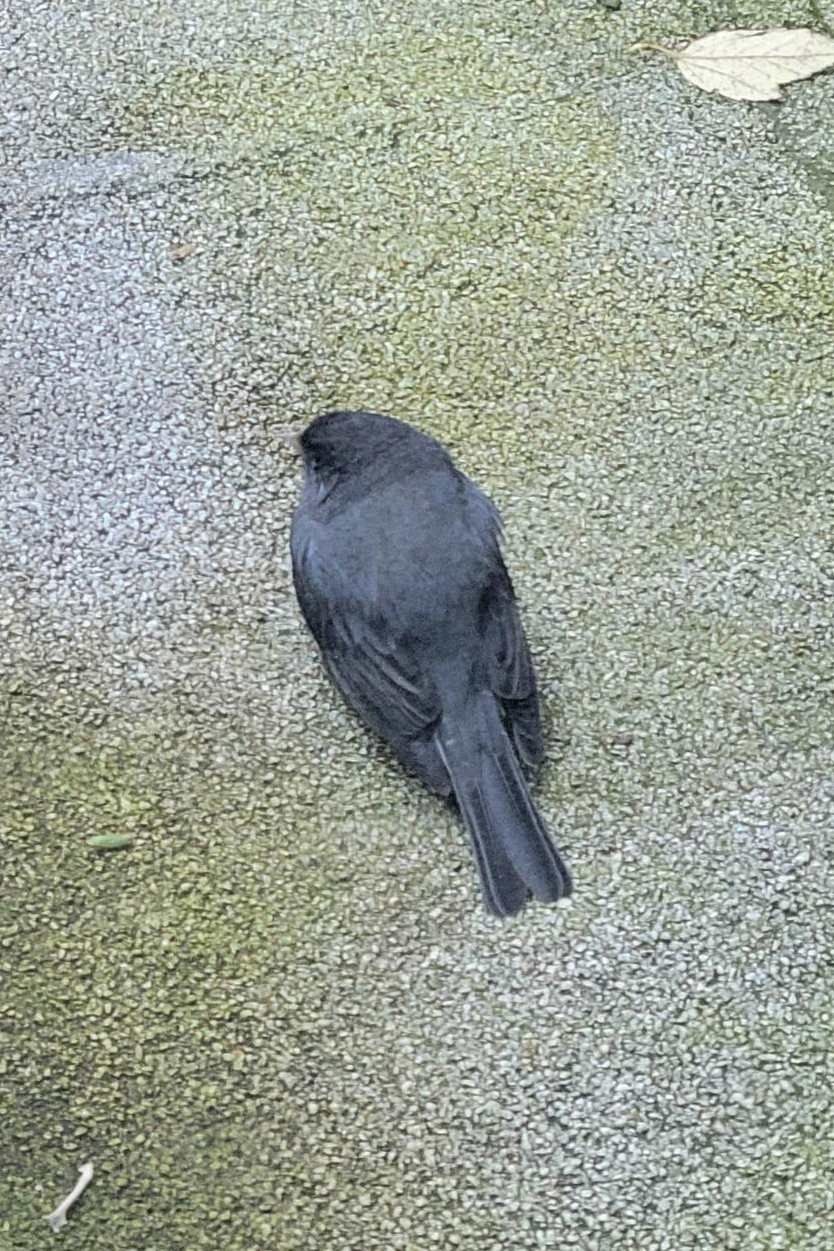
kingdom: Animalia
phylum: Chordata
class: Aves
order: Passeriformes
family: Passerellidae
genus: Junco
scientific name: Junco hyemalis
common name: Dark-eyed junco
